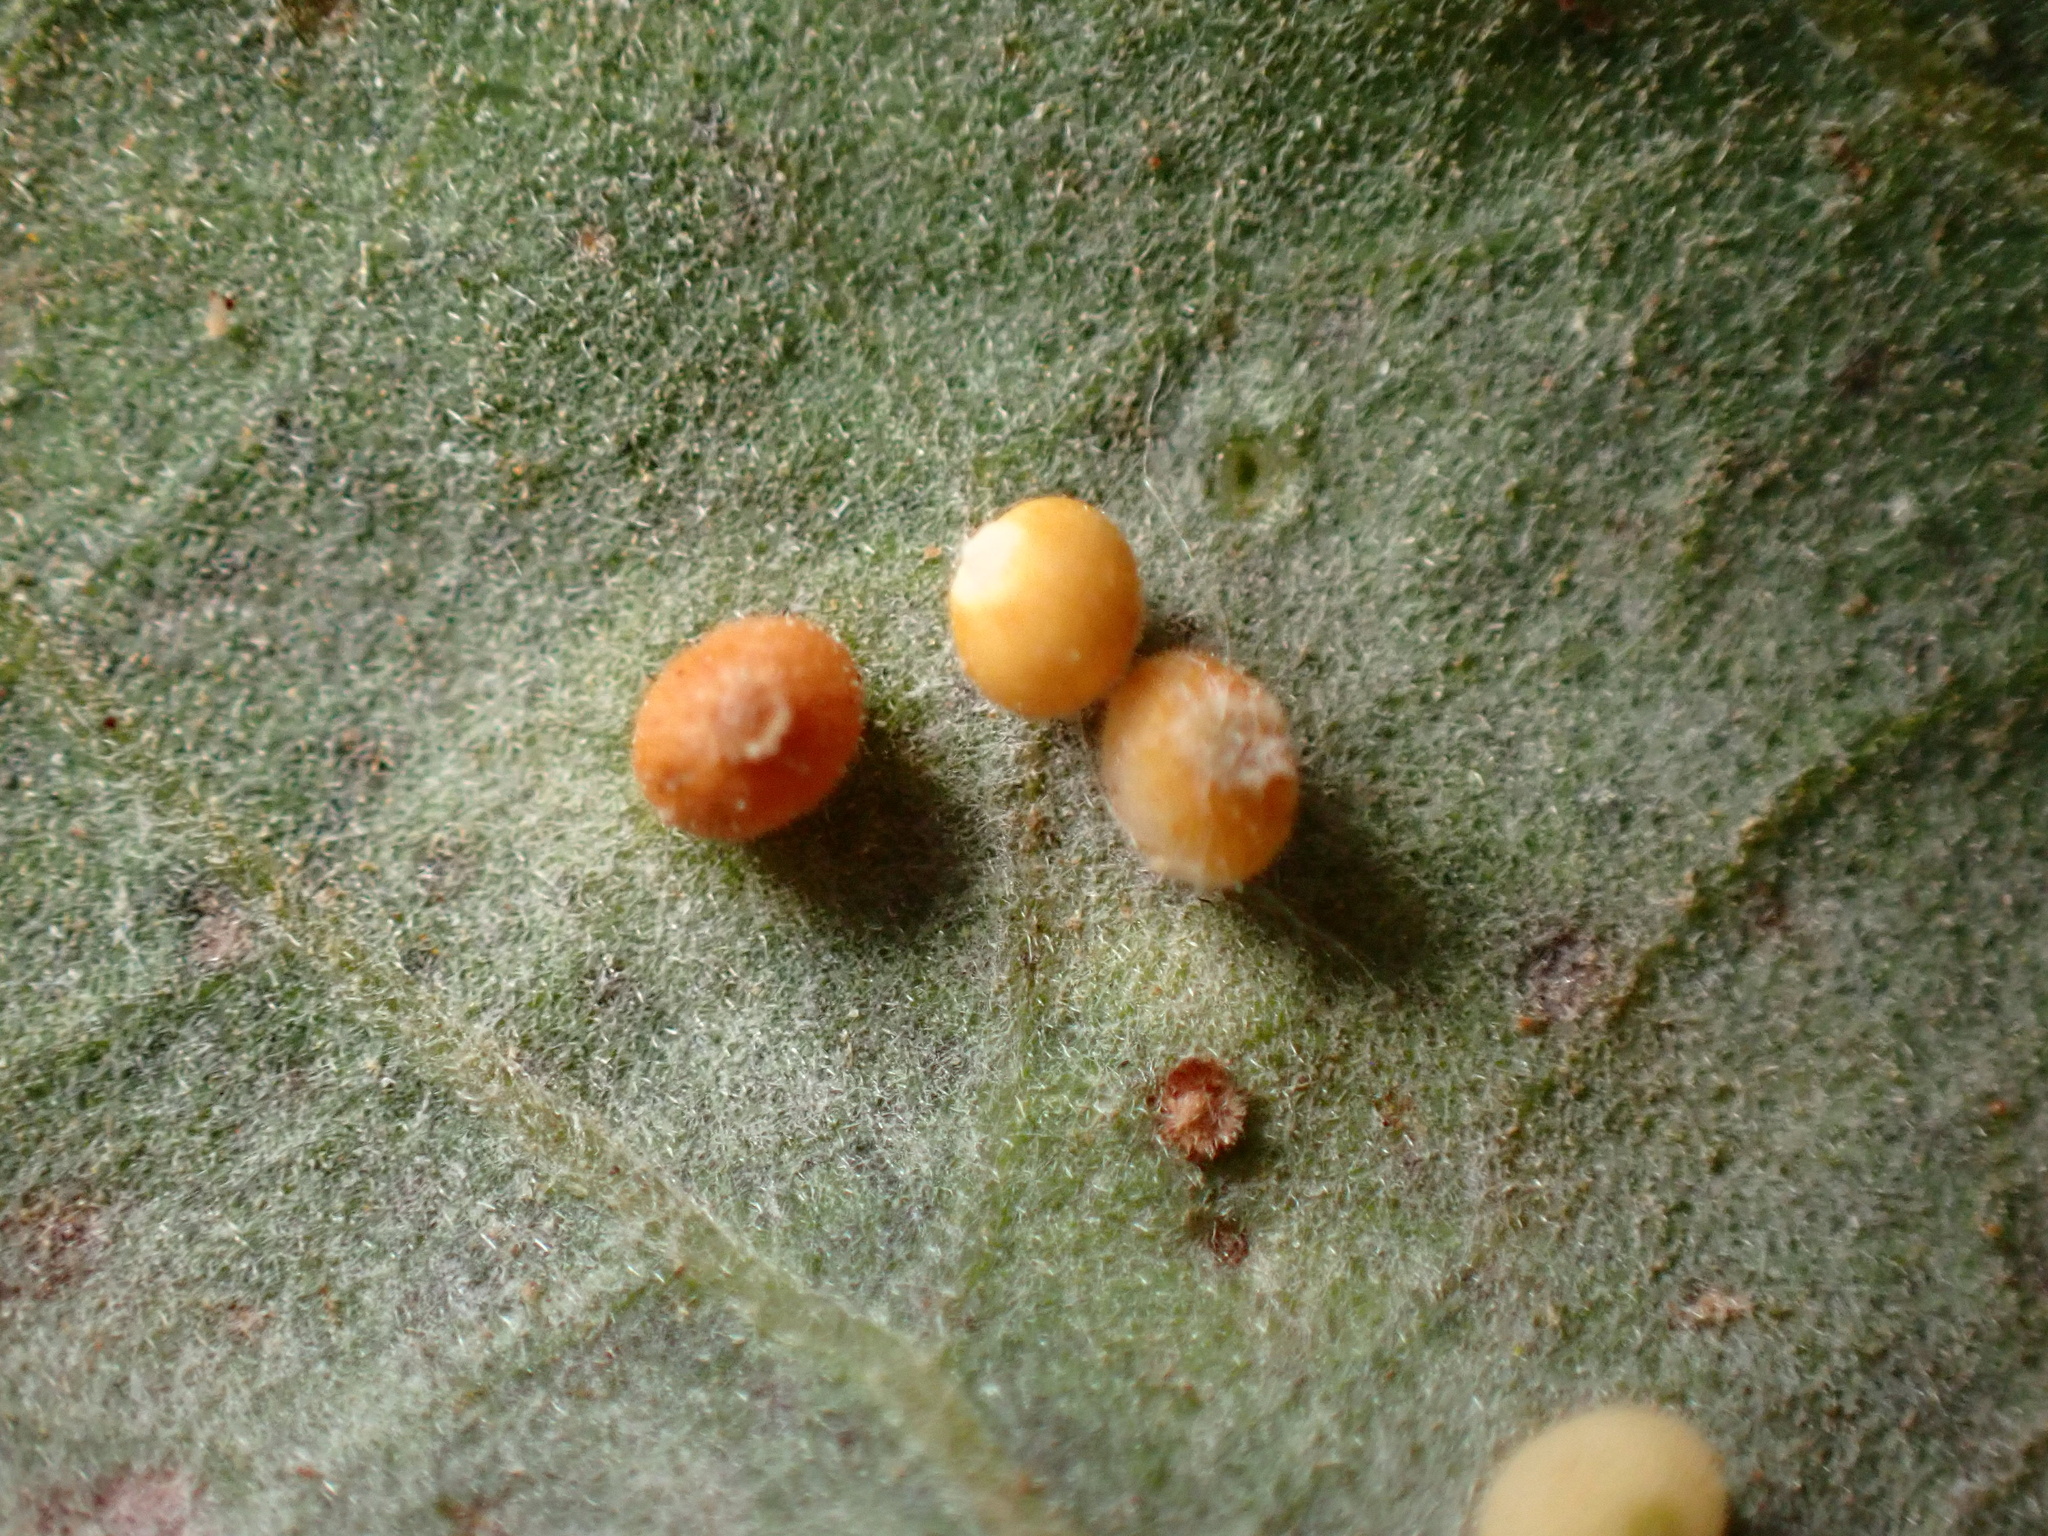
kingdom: Animalia
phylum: Arthropoda
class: Insecta
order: Hymenoptera
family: Cynipidae
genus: Neuroterus
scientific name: Neuroterus saltarius
